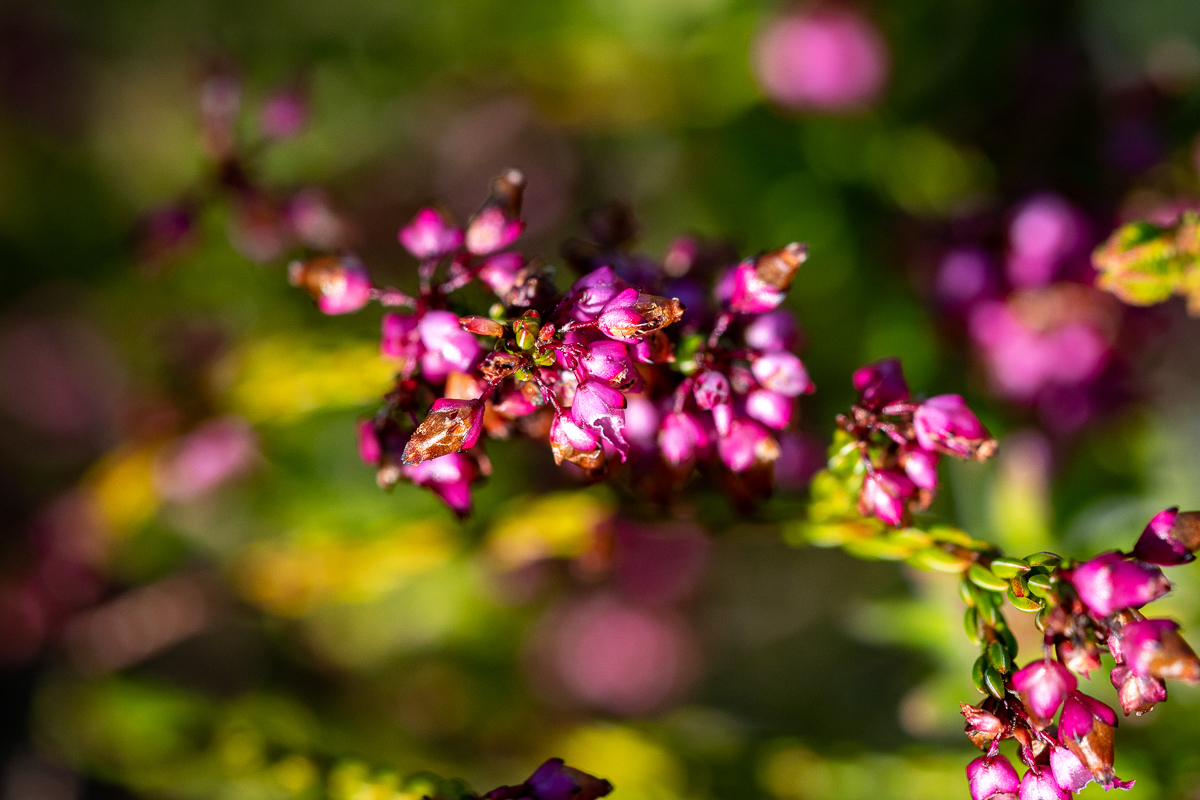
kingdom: Plantae
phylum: Tracheophyta
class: Magnoliopsida
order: Ericales
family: Ericaceae
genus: Erica
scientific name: Erica rhopalantha
